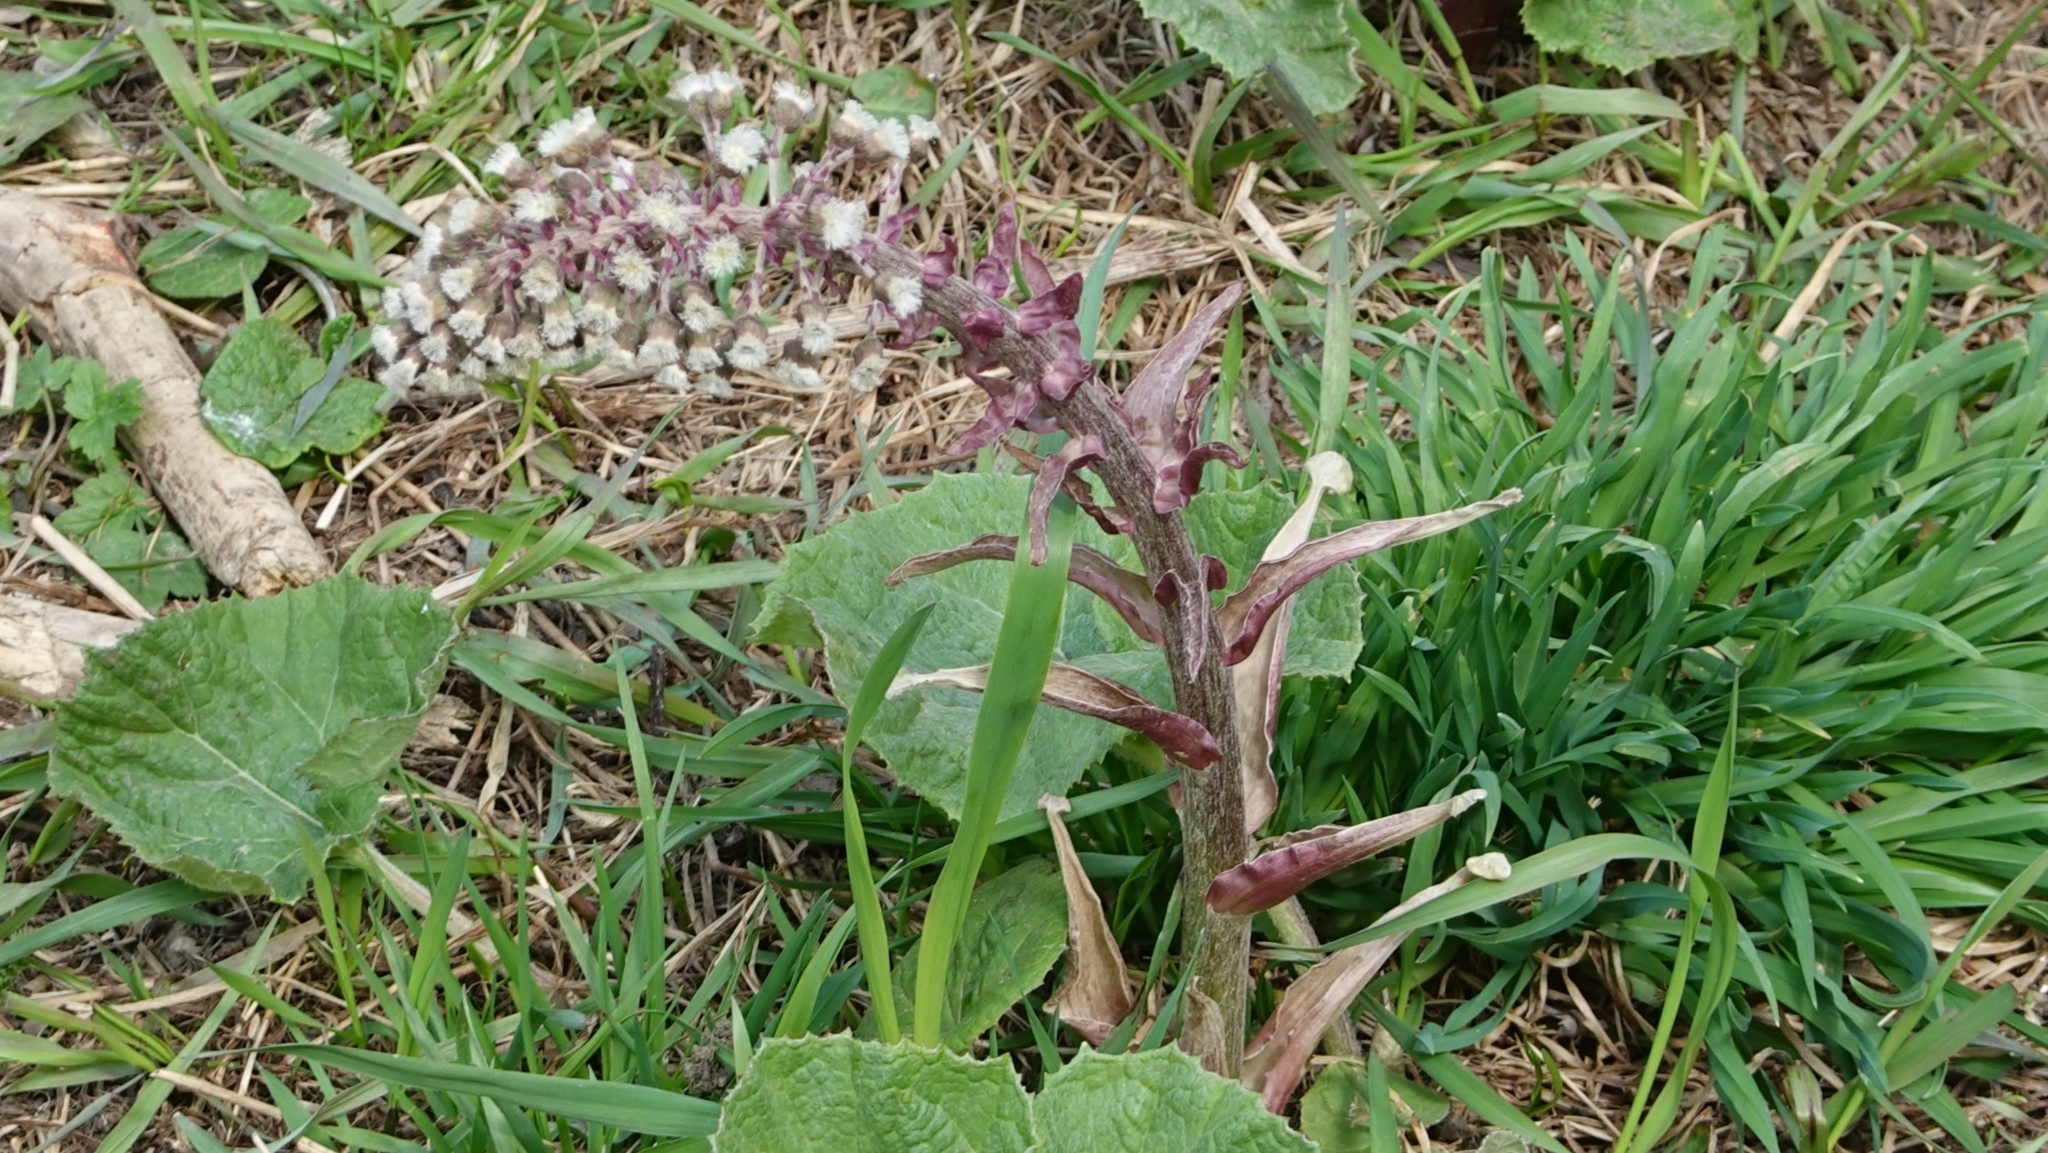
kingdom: Plantae
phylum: Tracheophyta
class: Magnoliopsida
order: Asterales
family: Asteraceae
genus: Petasites
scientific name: Petasites hybridus
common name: Butterbur
